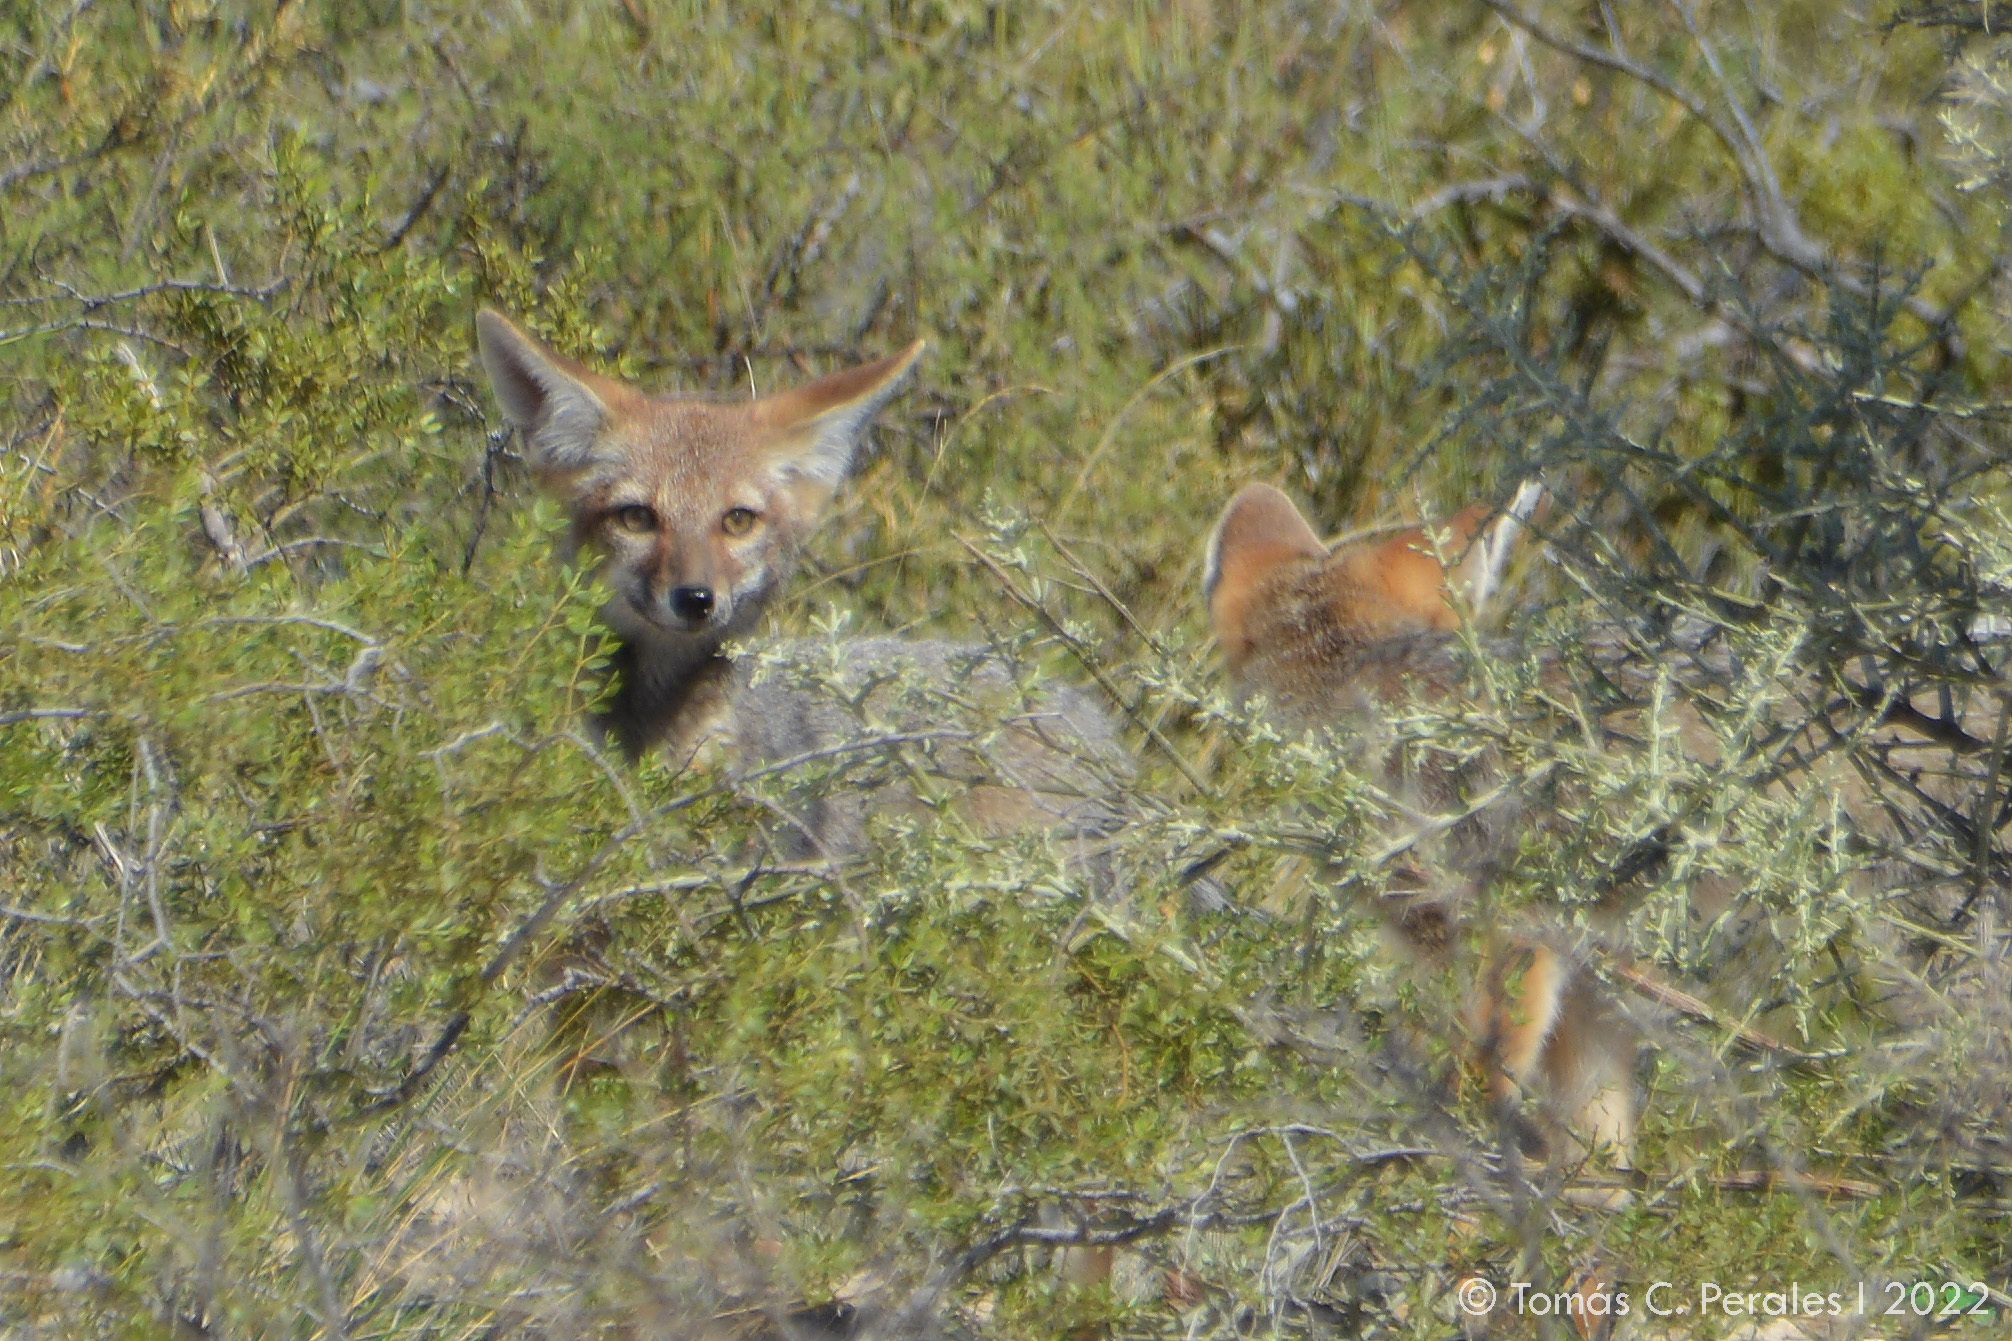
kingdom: Animalia
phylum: Chordata
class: Mammalia
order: Carnivora
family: Canidae
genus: Lycalopex
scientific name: Lycalopex gymnocercus
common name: Pampas fox
